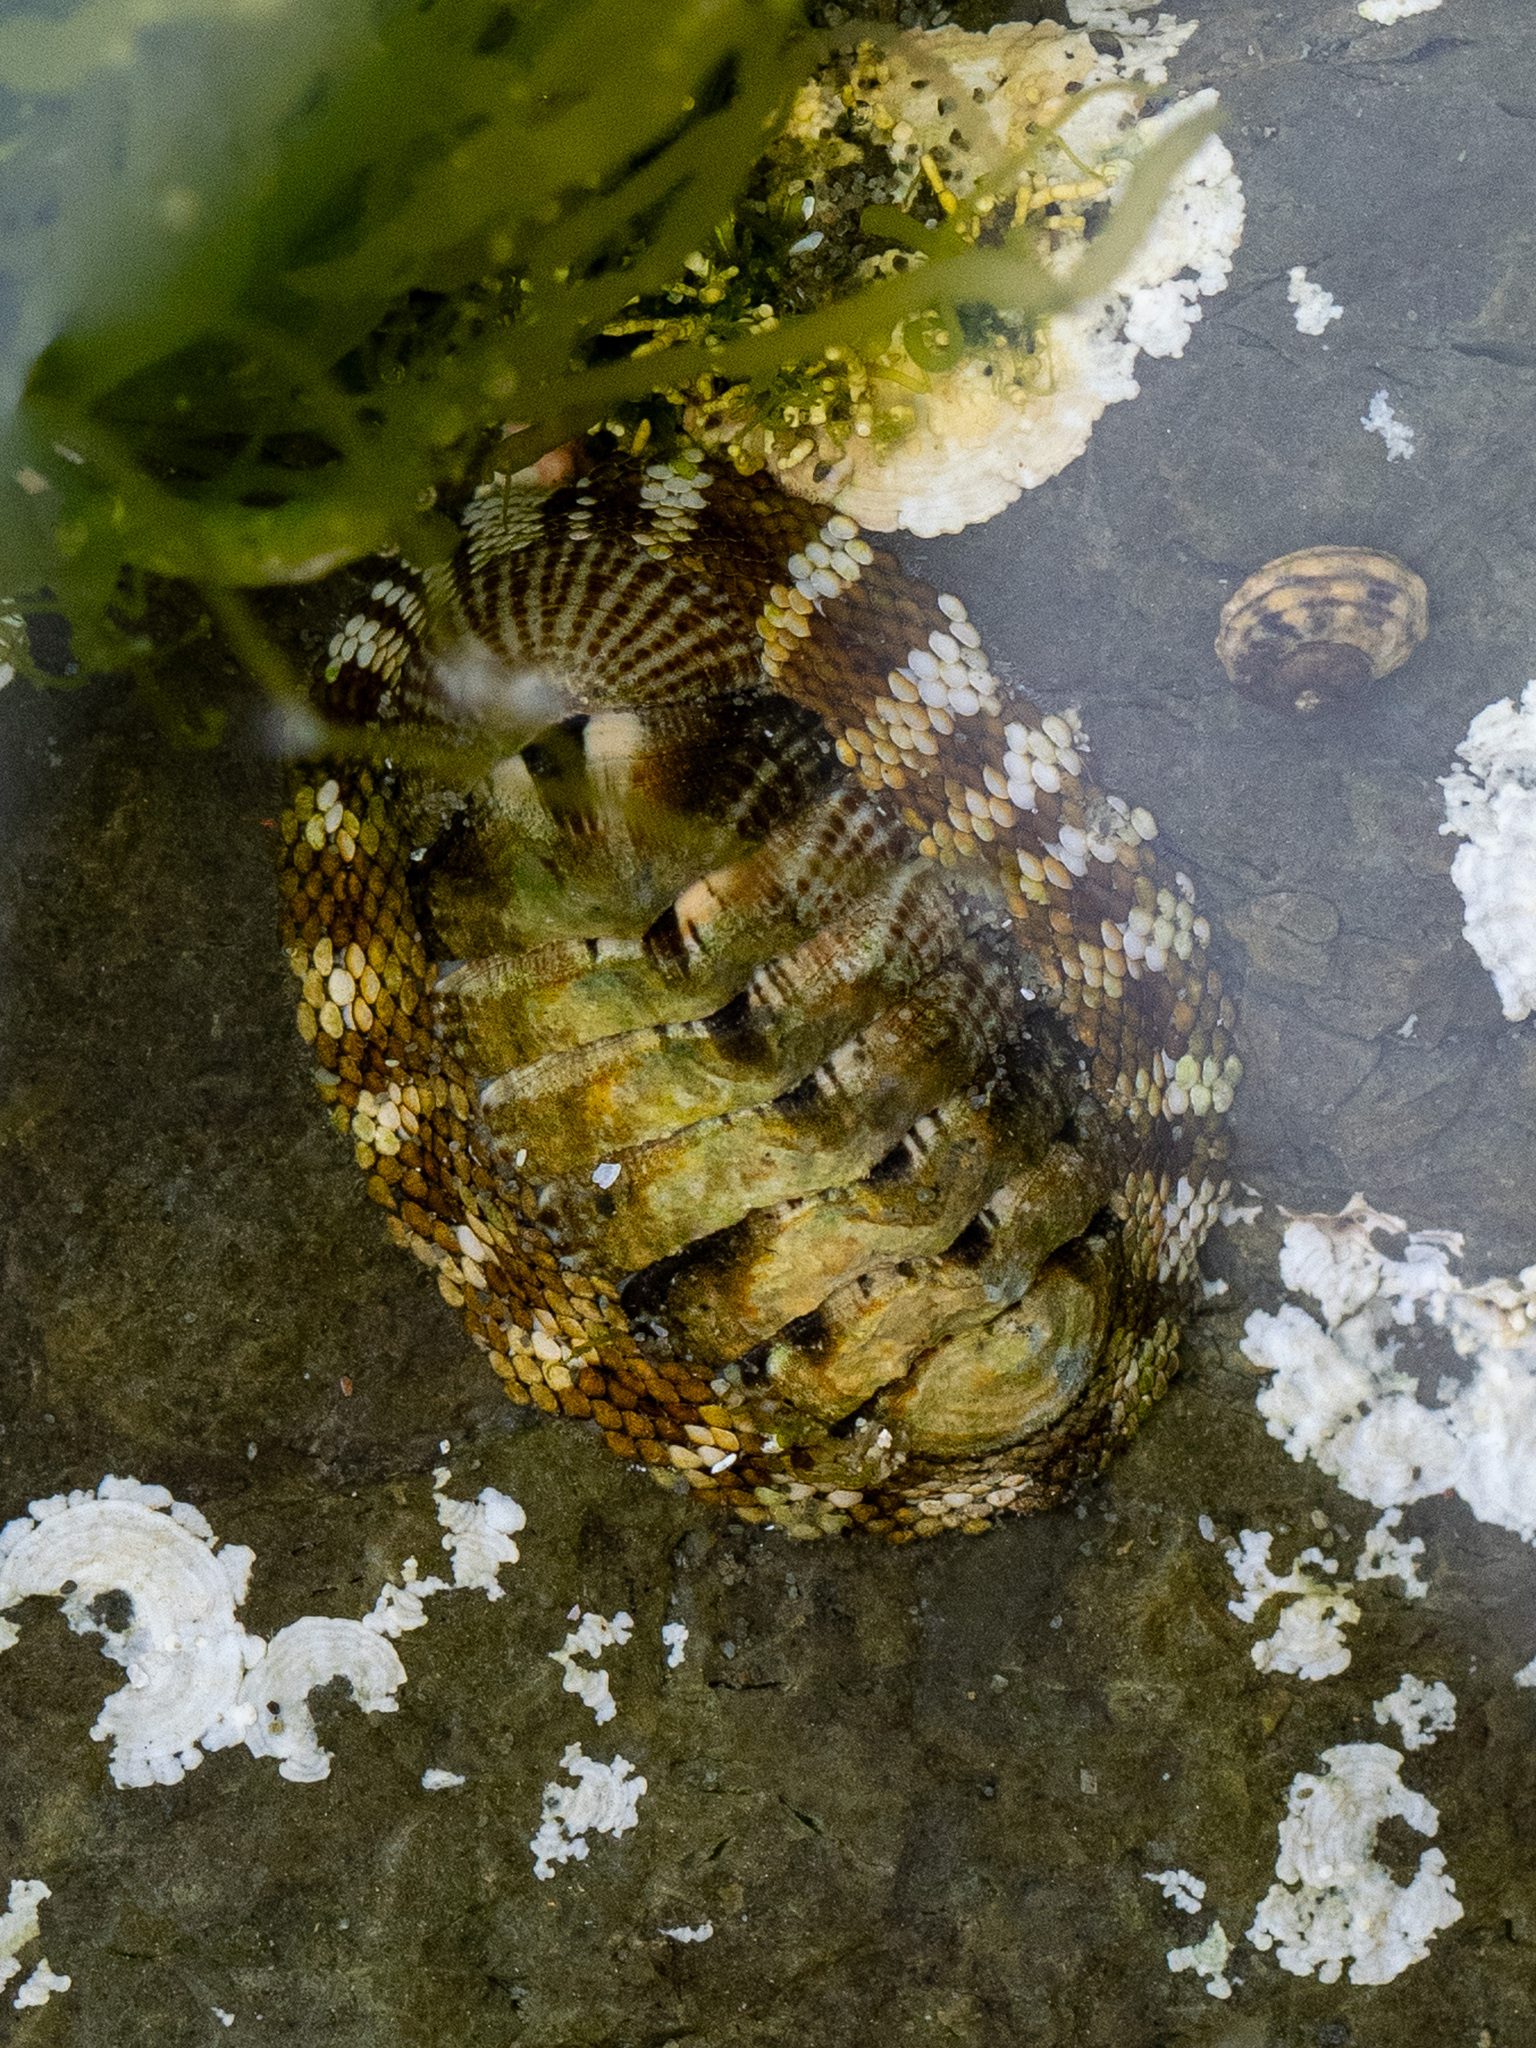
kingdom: Animalia
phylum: Mollusca
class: Polyplacophora
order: Chitonida
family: Chitonidae
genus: Sypharochiton
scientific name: Sypharochiton pelliserpentis
